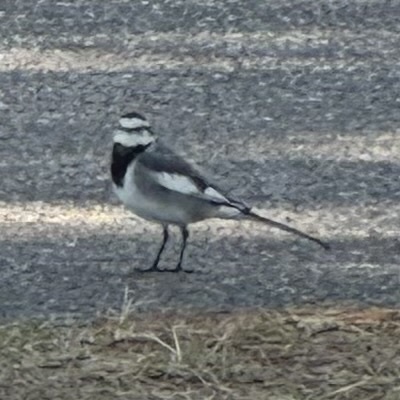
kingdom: Animalia
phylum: Chordata
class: Aves
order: Passeriformes
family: Motacillidae
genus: Motacilla
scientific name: Motacilla alba
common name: White wagtail
